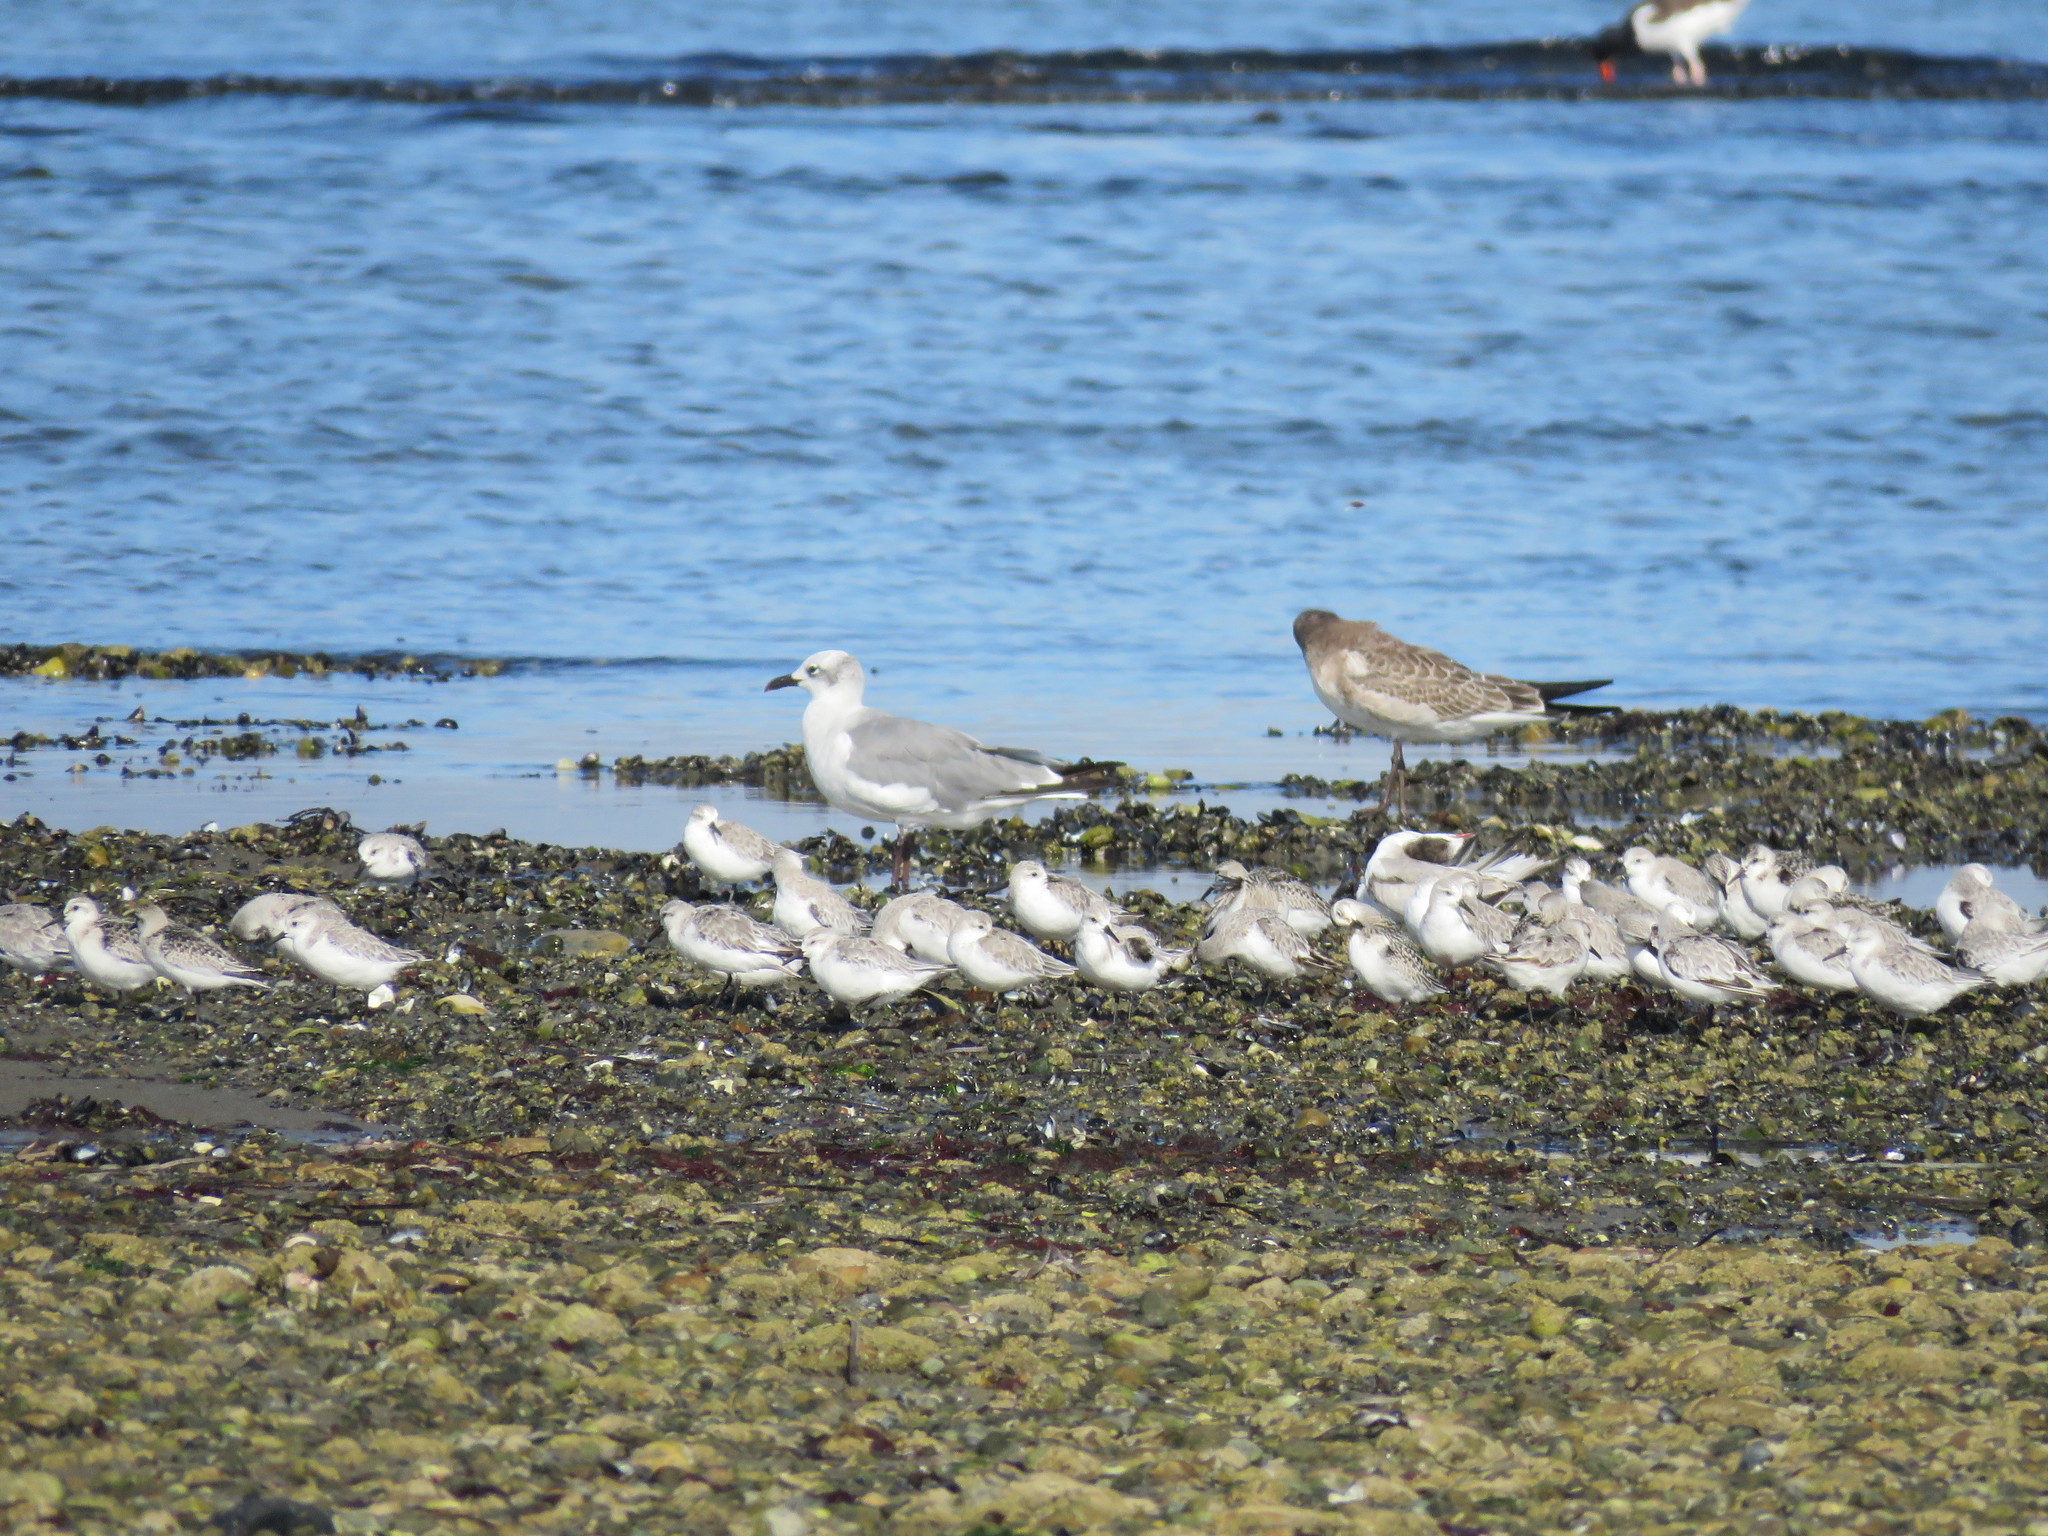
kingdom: Animalia
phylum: Chordata
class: Aves
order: Charadriiformes
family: Laridae
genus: Leucophaeus
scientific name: Leucophaeus atricilla
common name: Laughing gull
